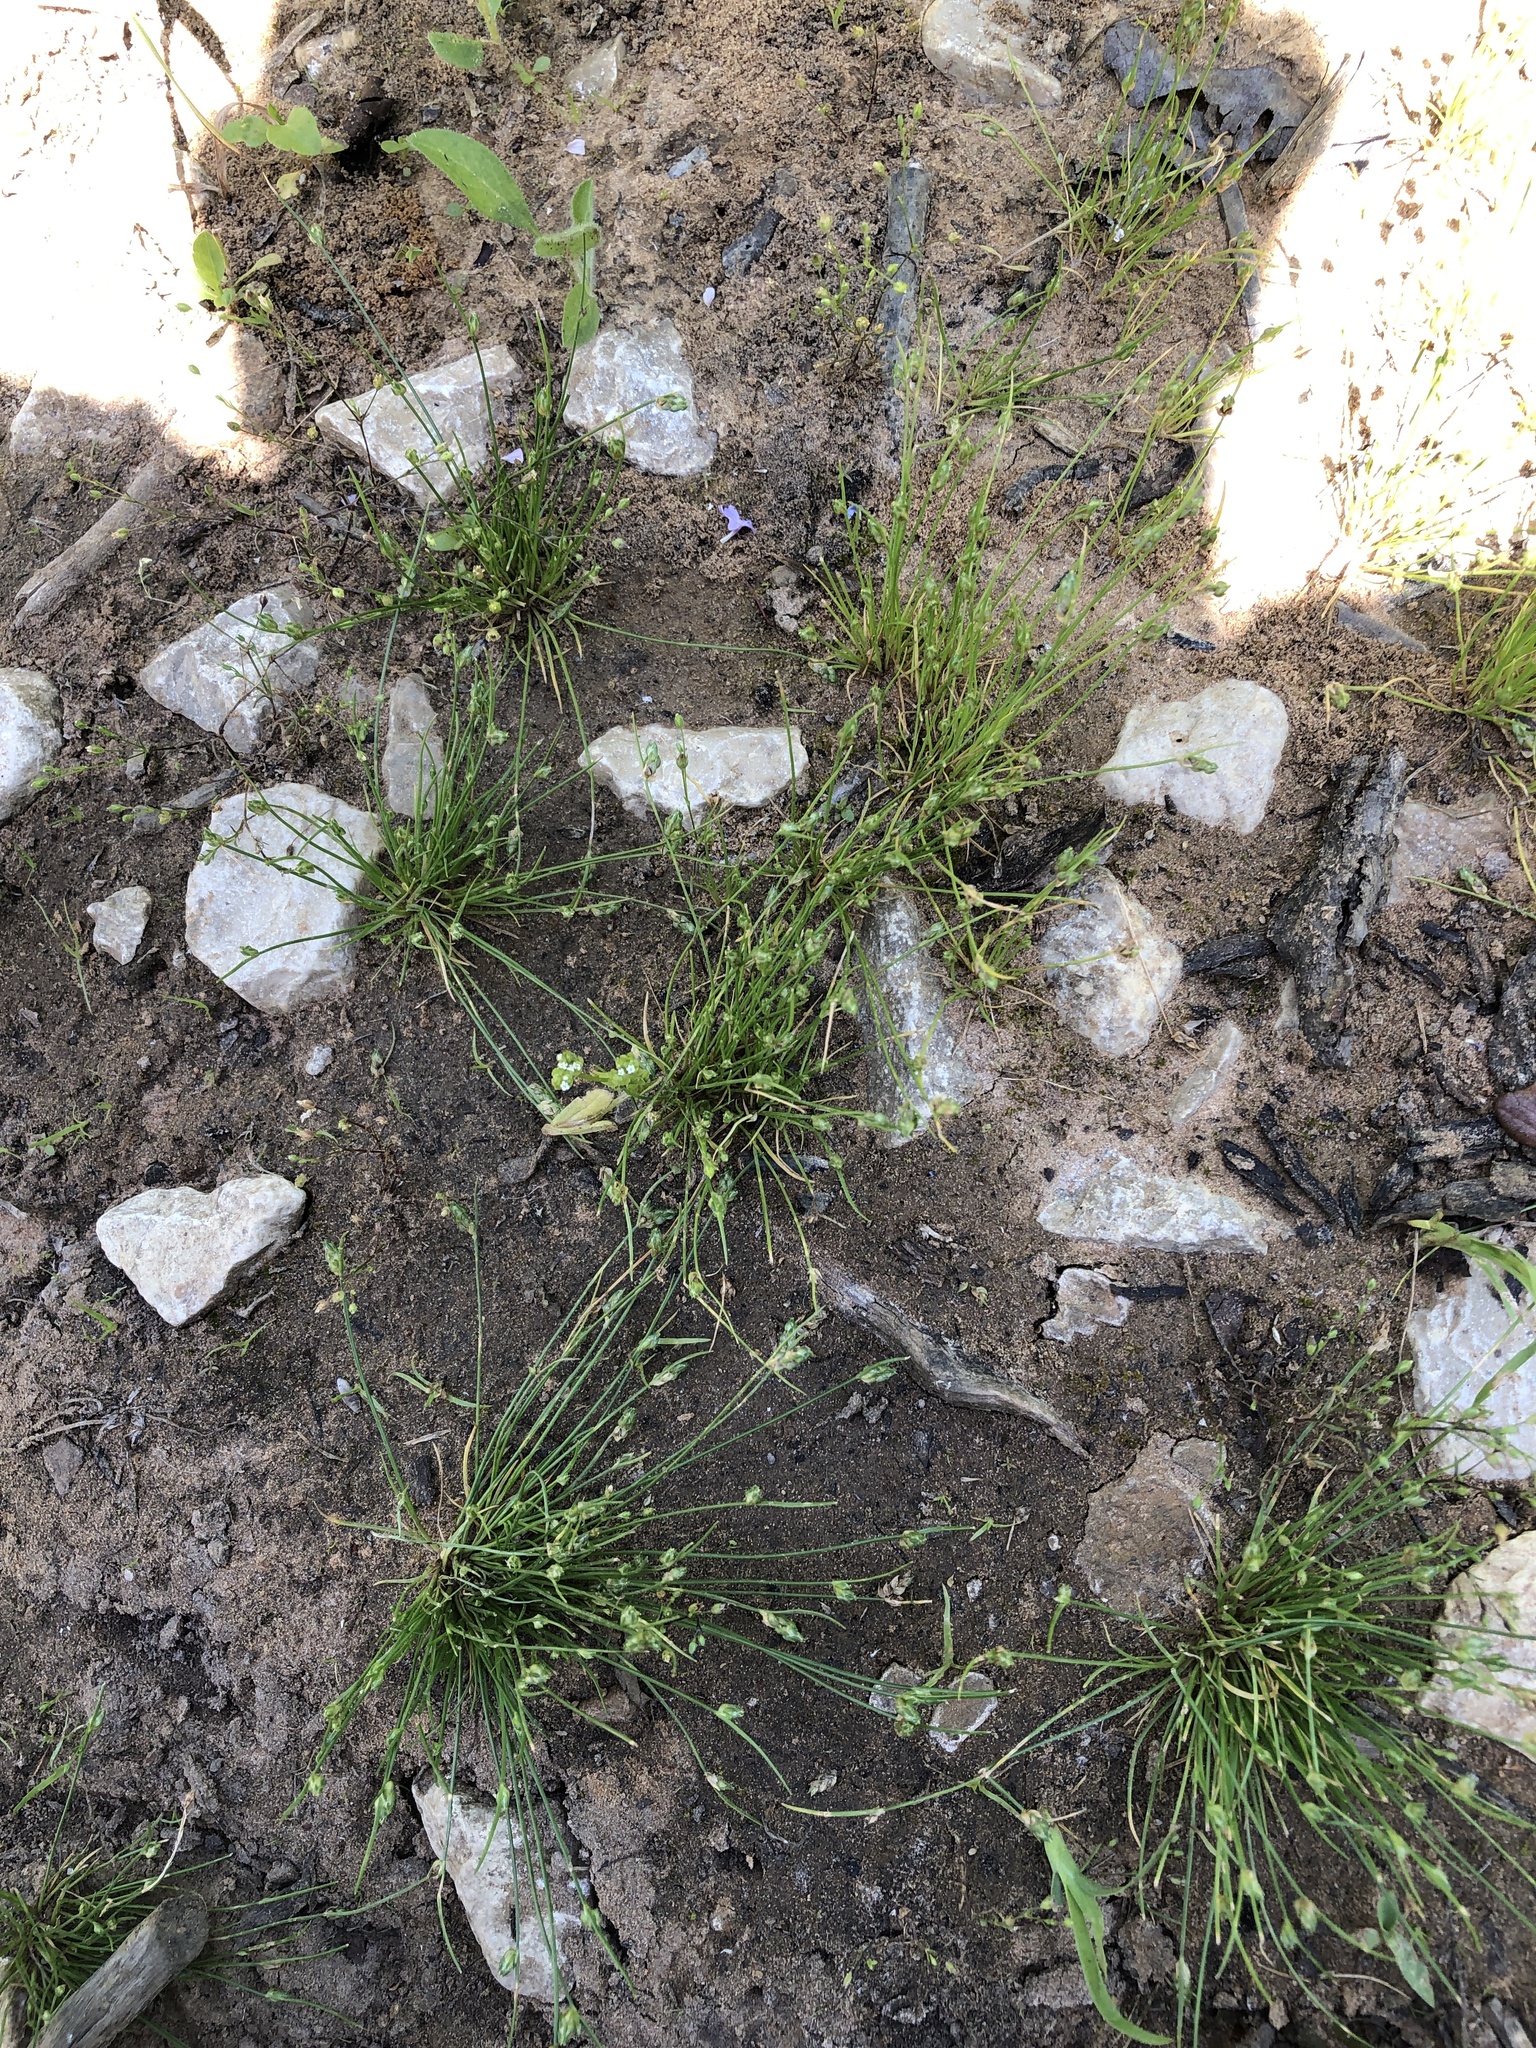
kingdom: Plantae
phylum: Tracheophyta
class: Liliopsida
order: Poales
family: Cyperaceae
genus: Isolepis
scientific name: Isolepis carinata
